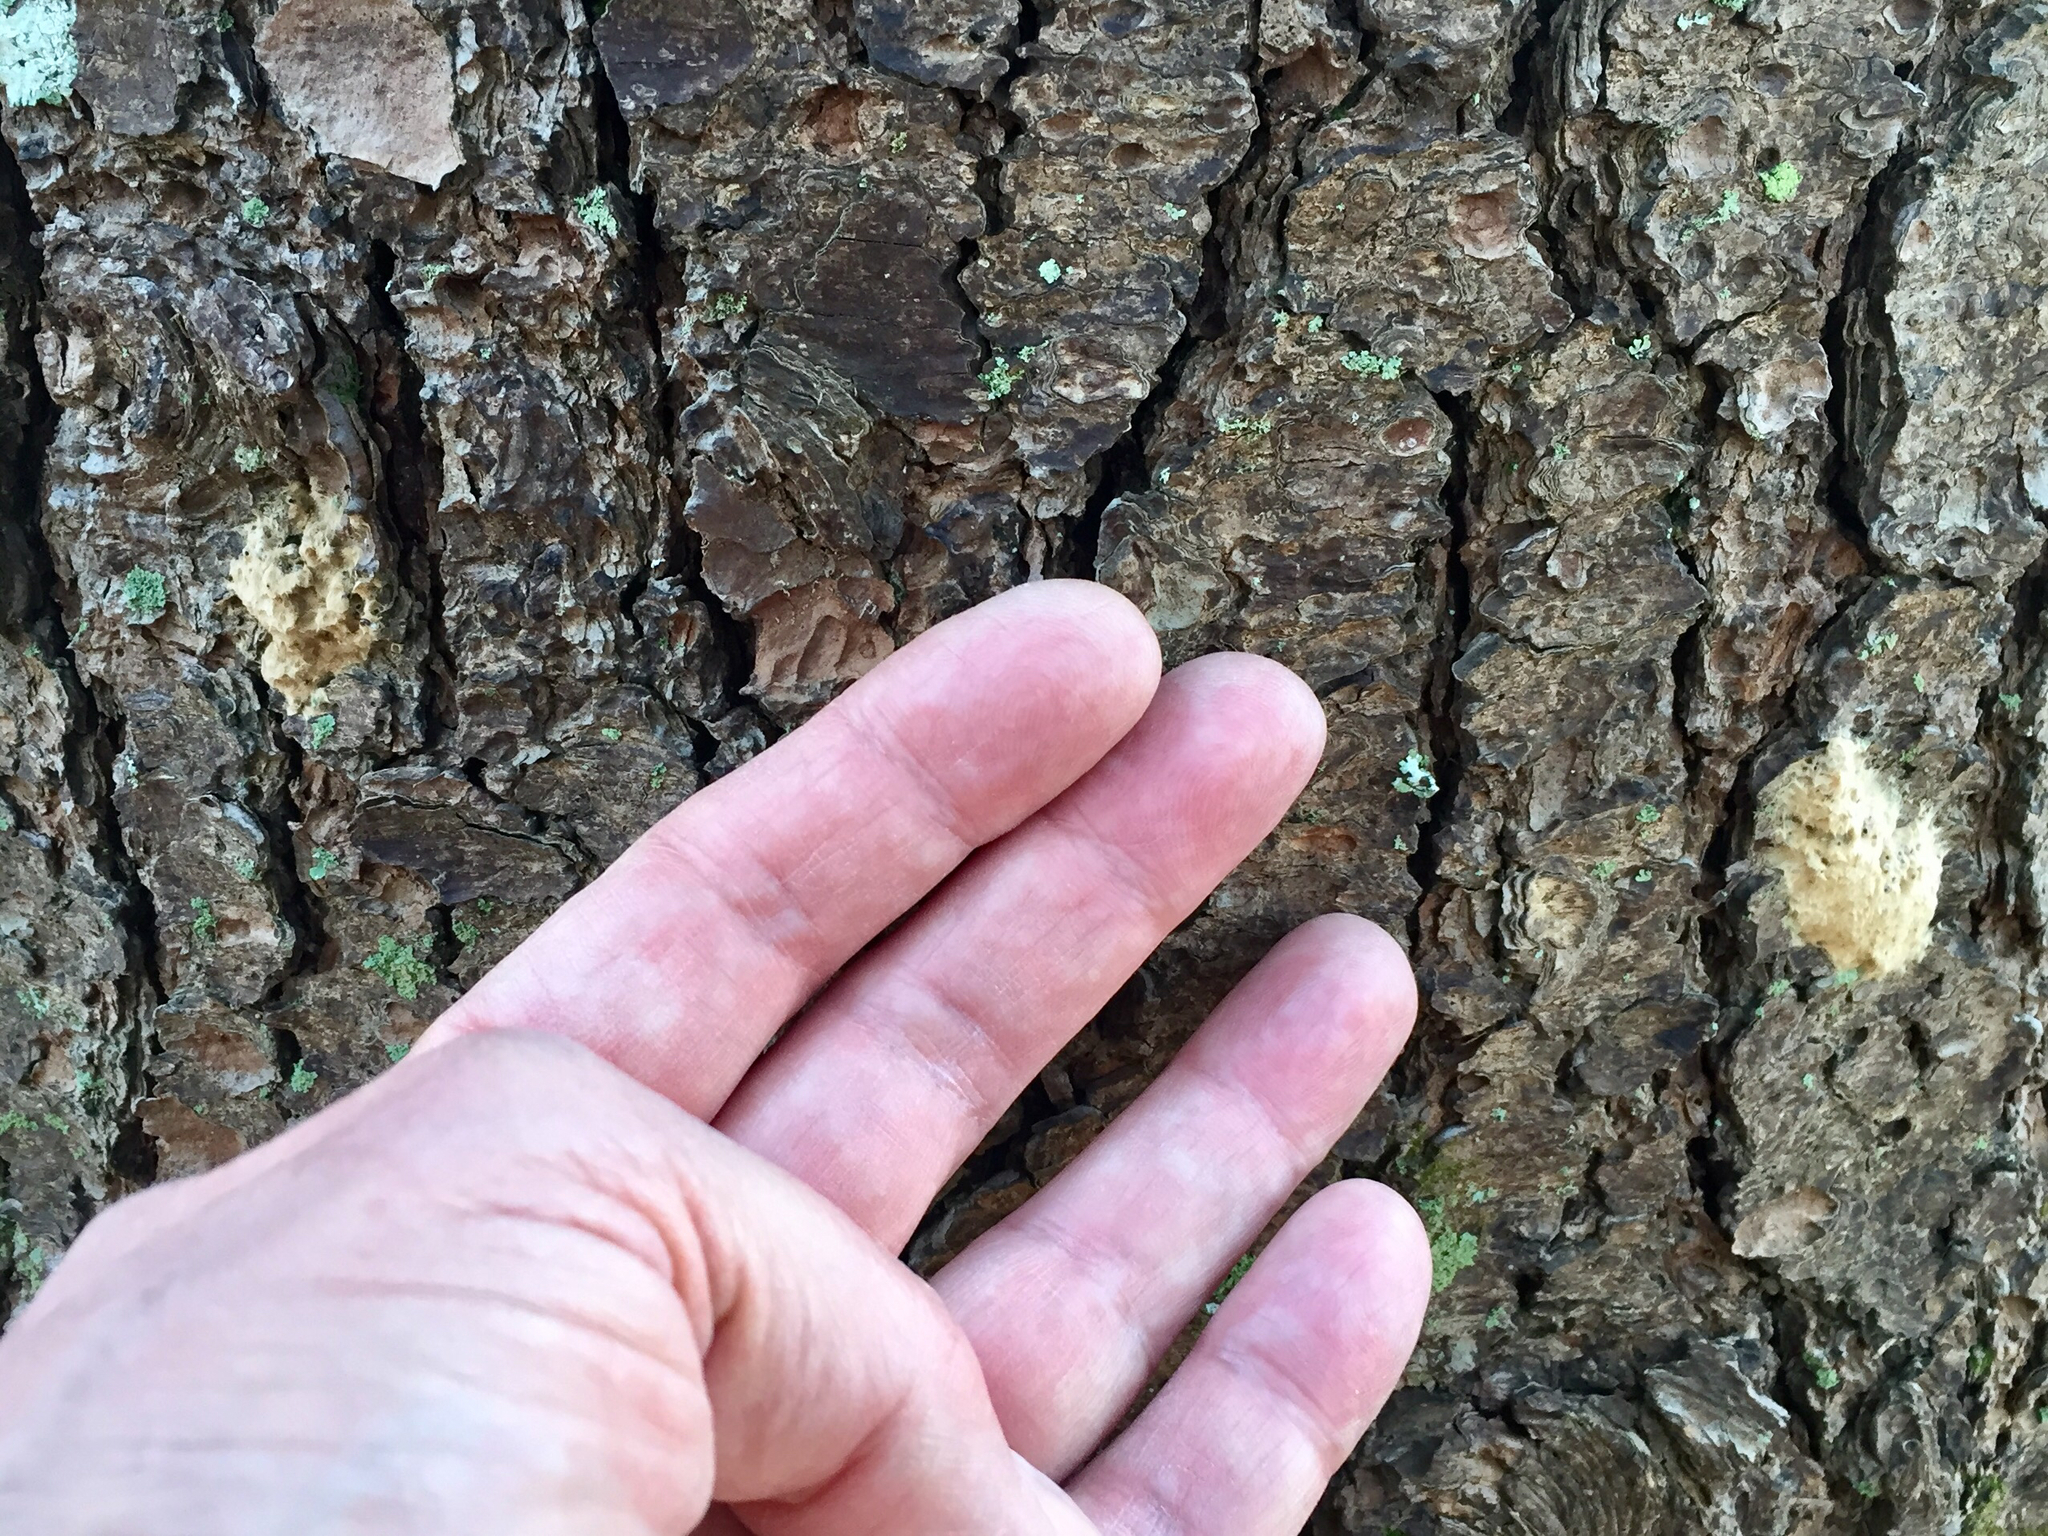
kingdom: Animalia
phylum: Arthropoda
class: Insecta
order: Lepidoptera
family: Erebidae
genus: Lymantria
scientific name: Lymantria dispar
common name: Gypsy moth
